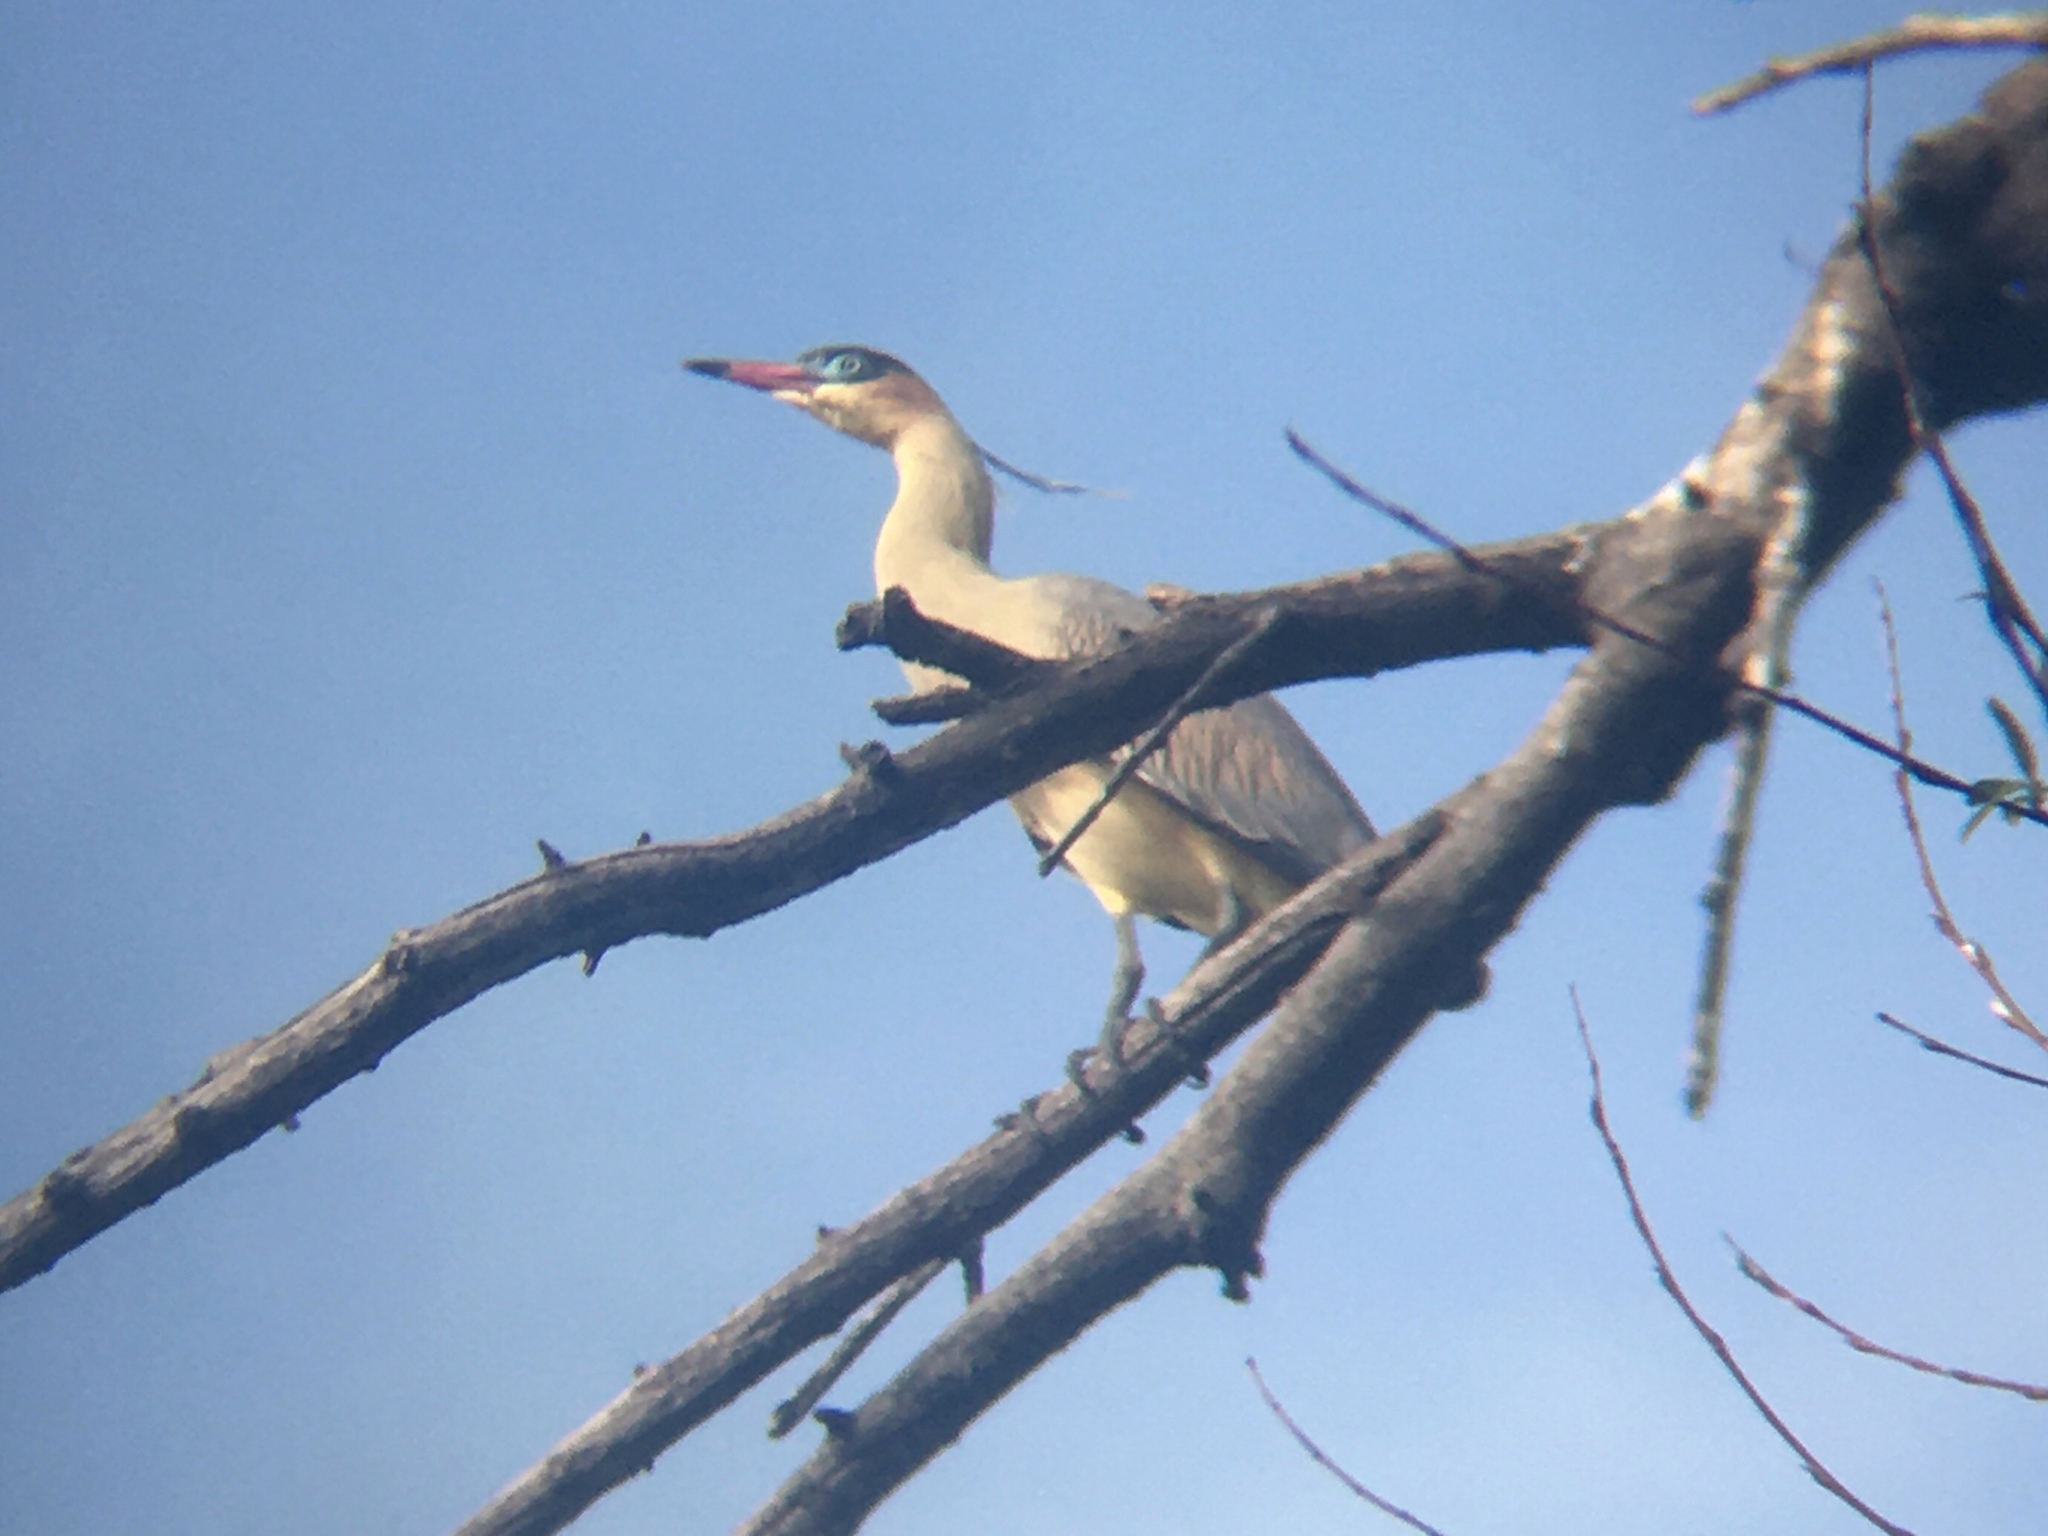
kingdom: Animalia
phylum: Chordata
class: Aves
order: Pelecaniformes
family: Ardeidae
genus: Syrigma
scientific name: Syrigma sibilatrix
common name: Whistling heron
